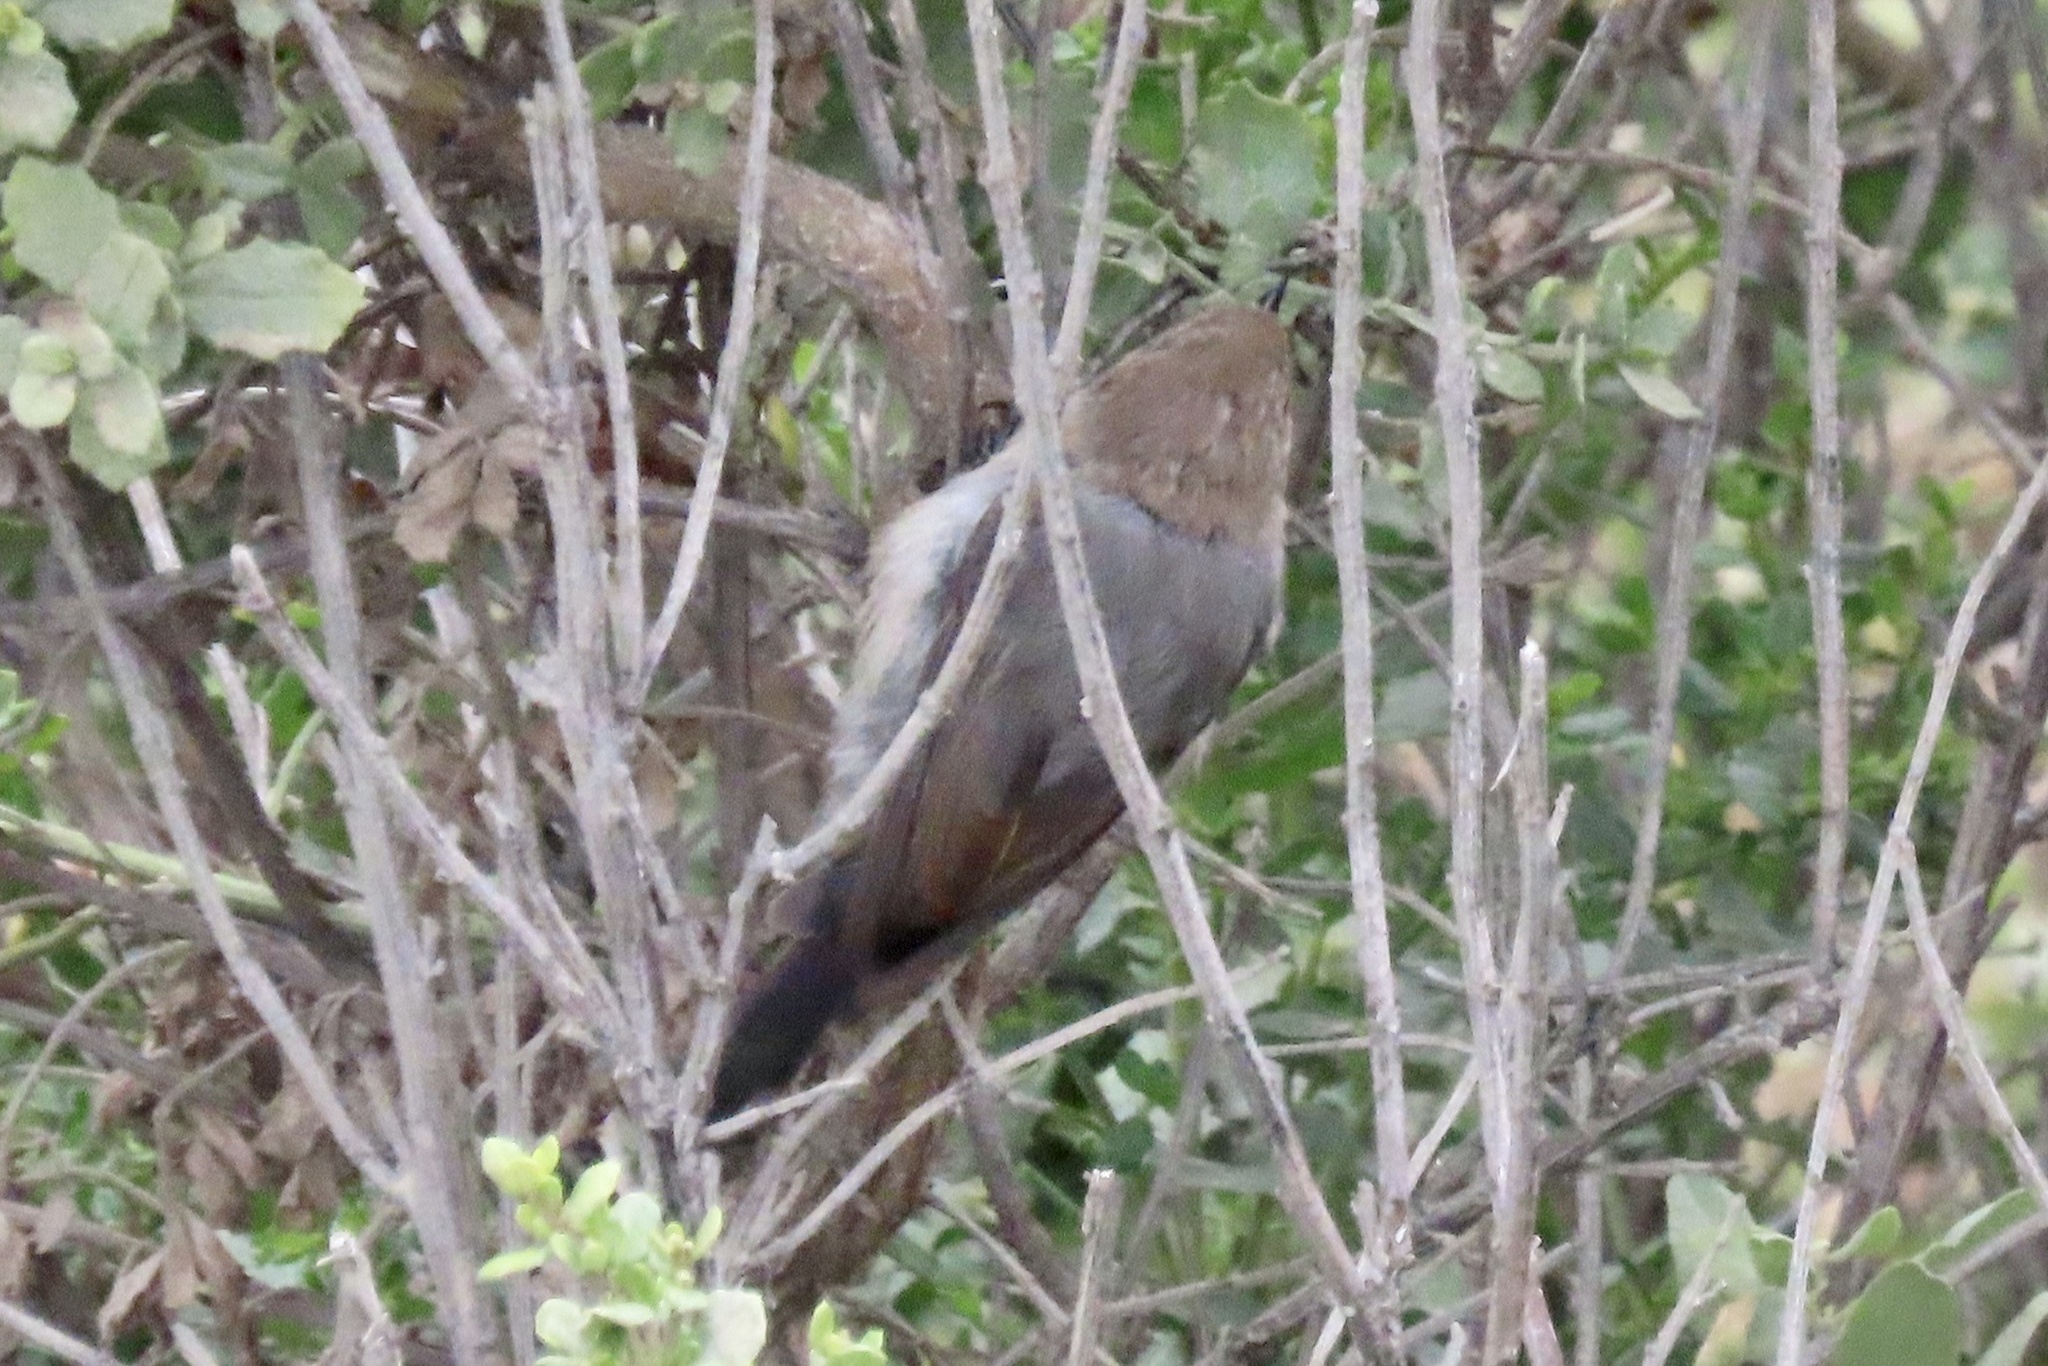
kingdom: Animalia
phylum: Chordata
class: Aves
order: Passeriformes
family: Aegithalidae
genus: Psaltriparus
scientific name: Psaltriparus minimus
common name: American bushtit
